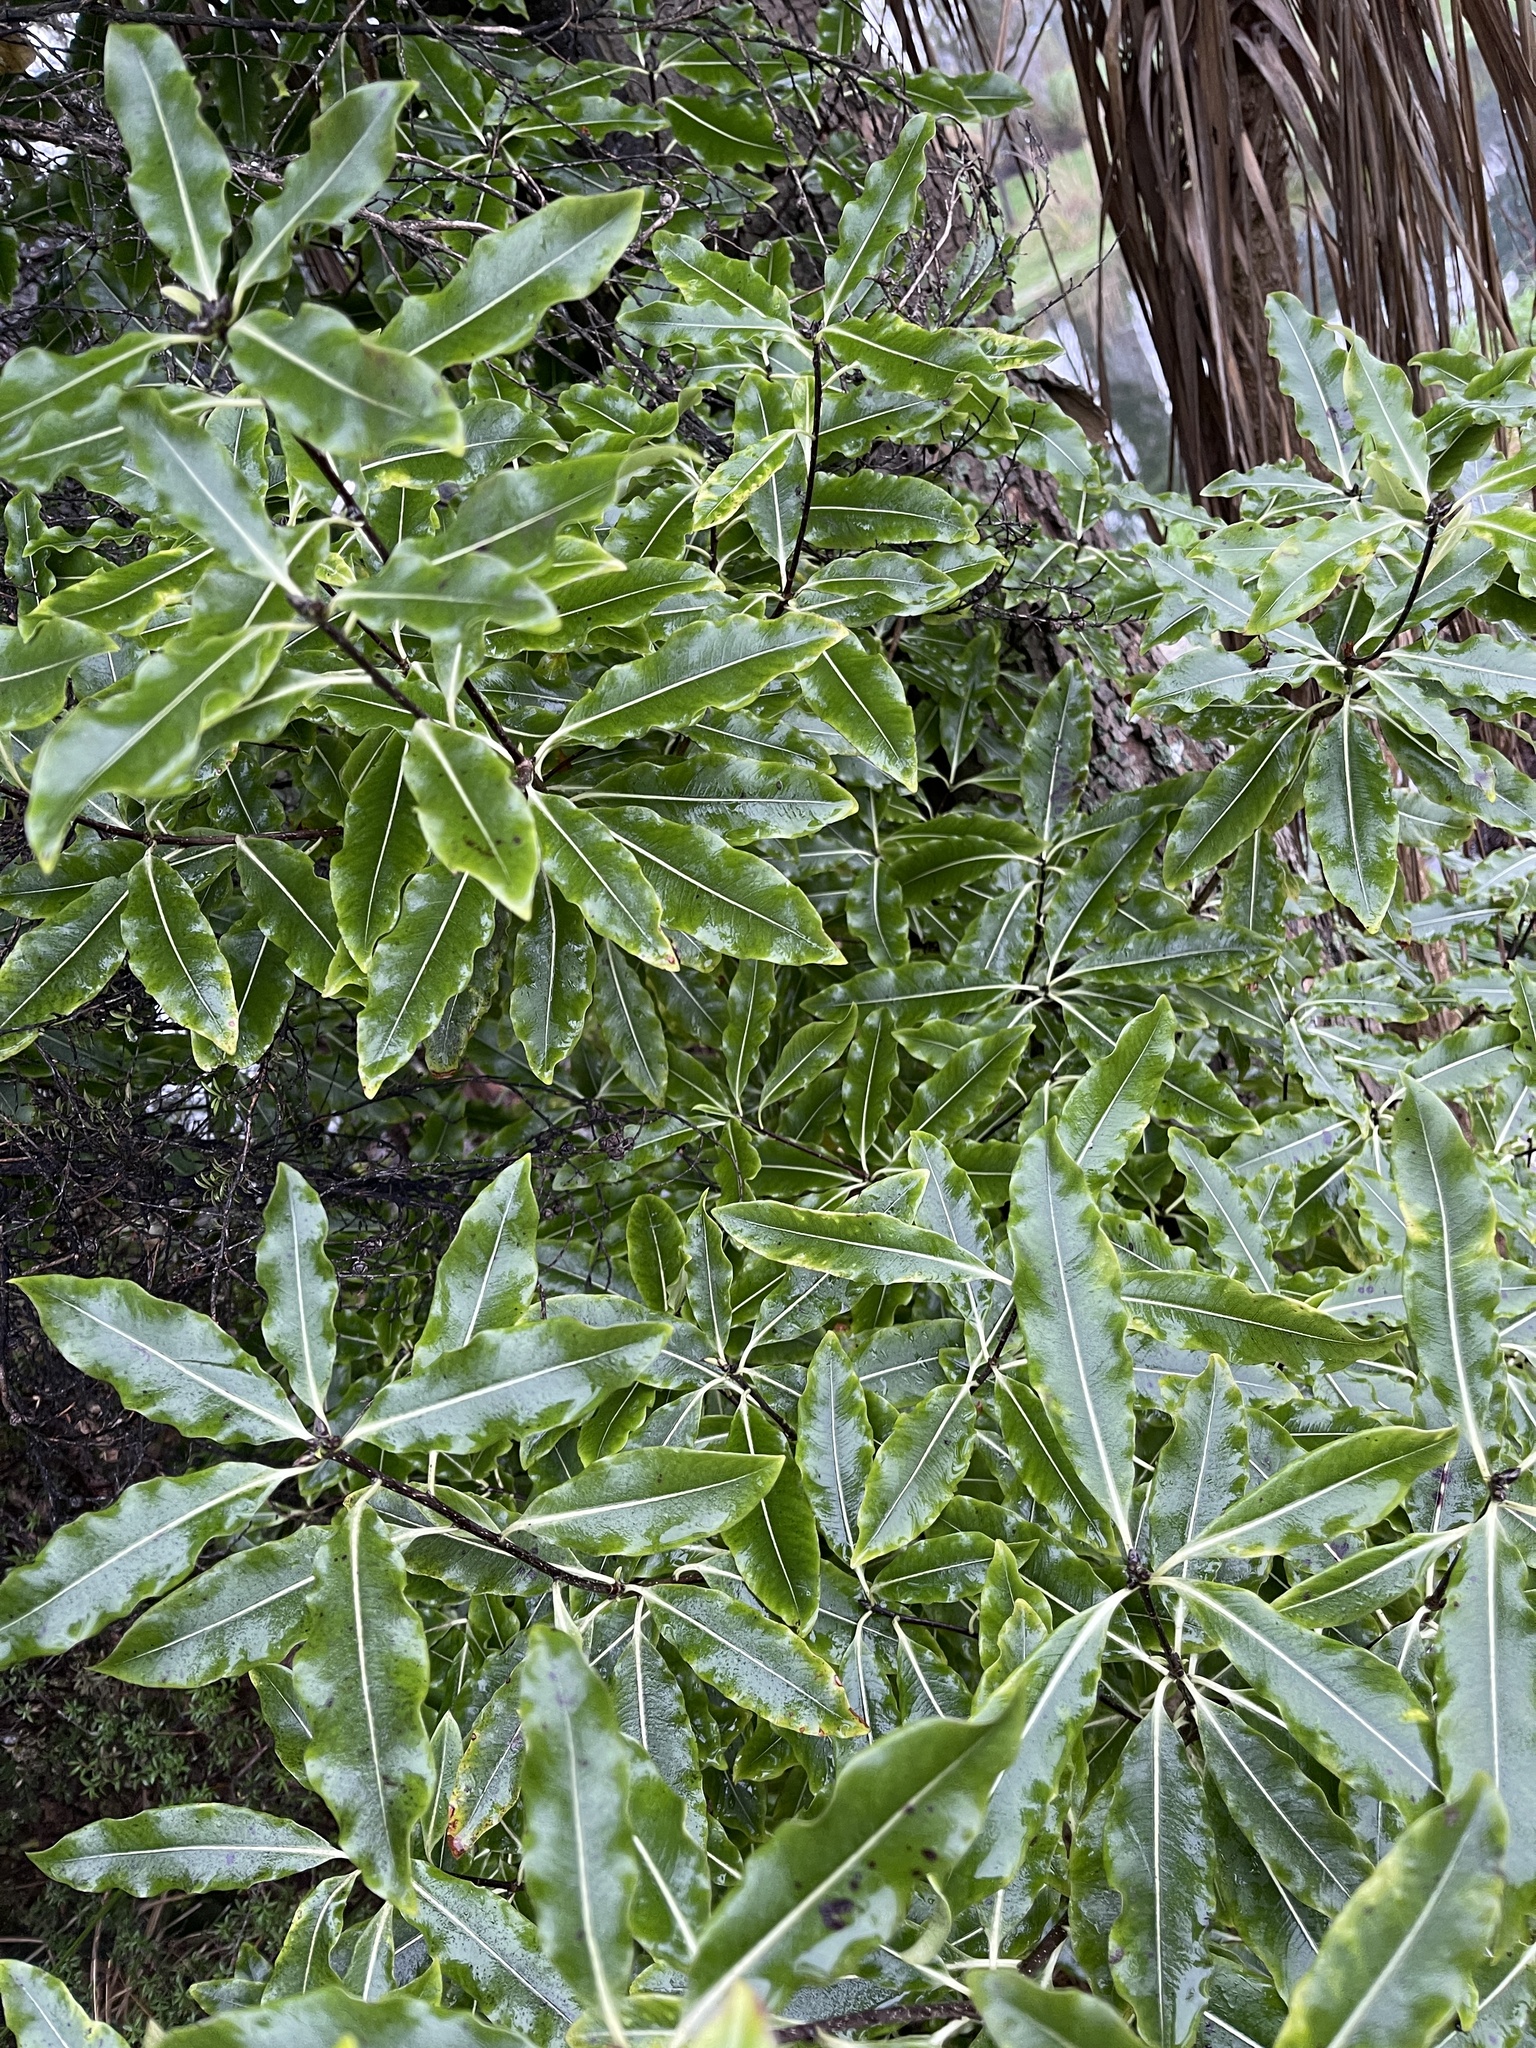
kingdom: Plantae
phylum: Tracheophyta
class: Magnoliopsida
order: Apiales
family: Pittosporaceae
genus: Pittosporum
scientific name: Pittosporum eugenioides
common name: Lemonwood
